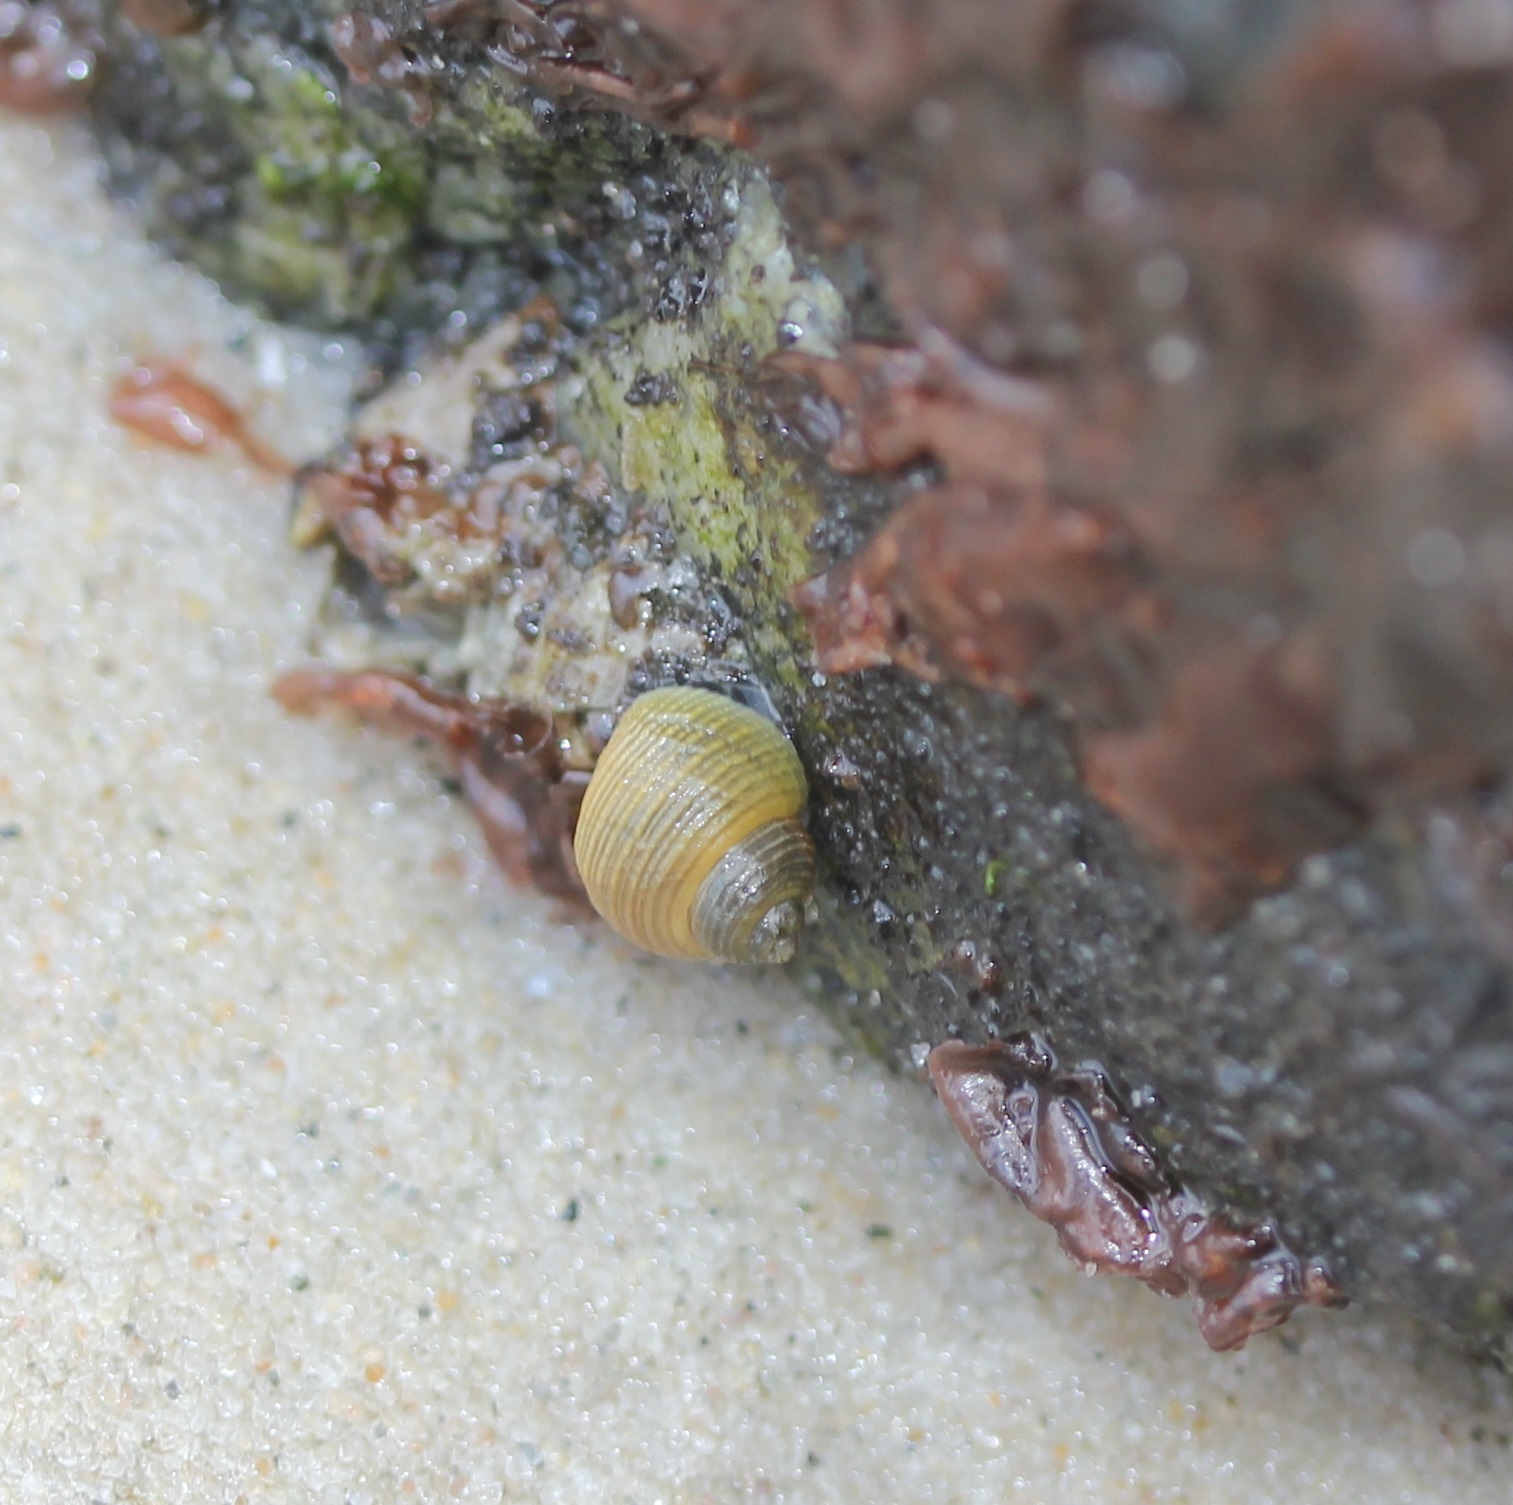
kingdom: Animalia
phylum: Mollusca
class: Gastropoda
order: Littorinimorpha
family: Littorinidae
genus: Littorina
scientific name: Littorina saxatilis
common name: Black-lined periwinkle
